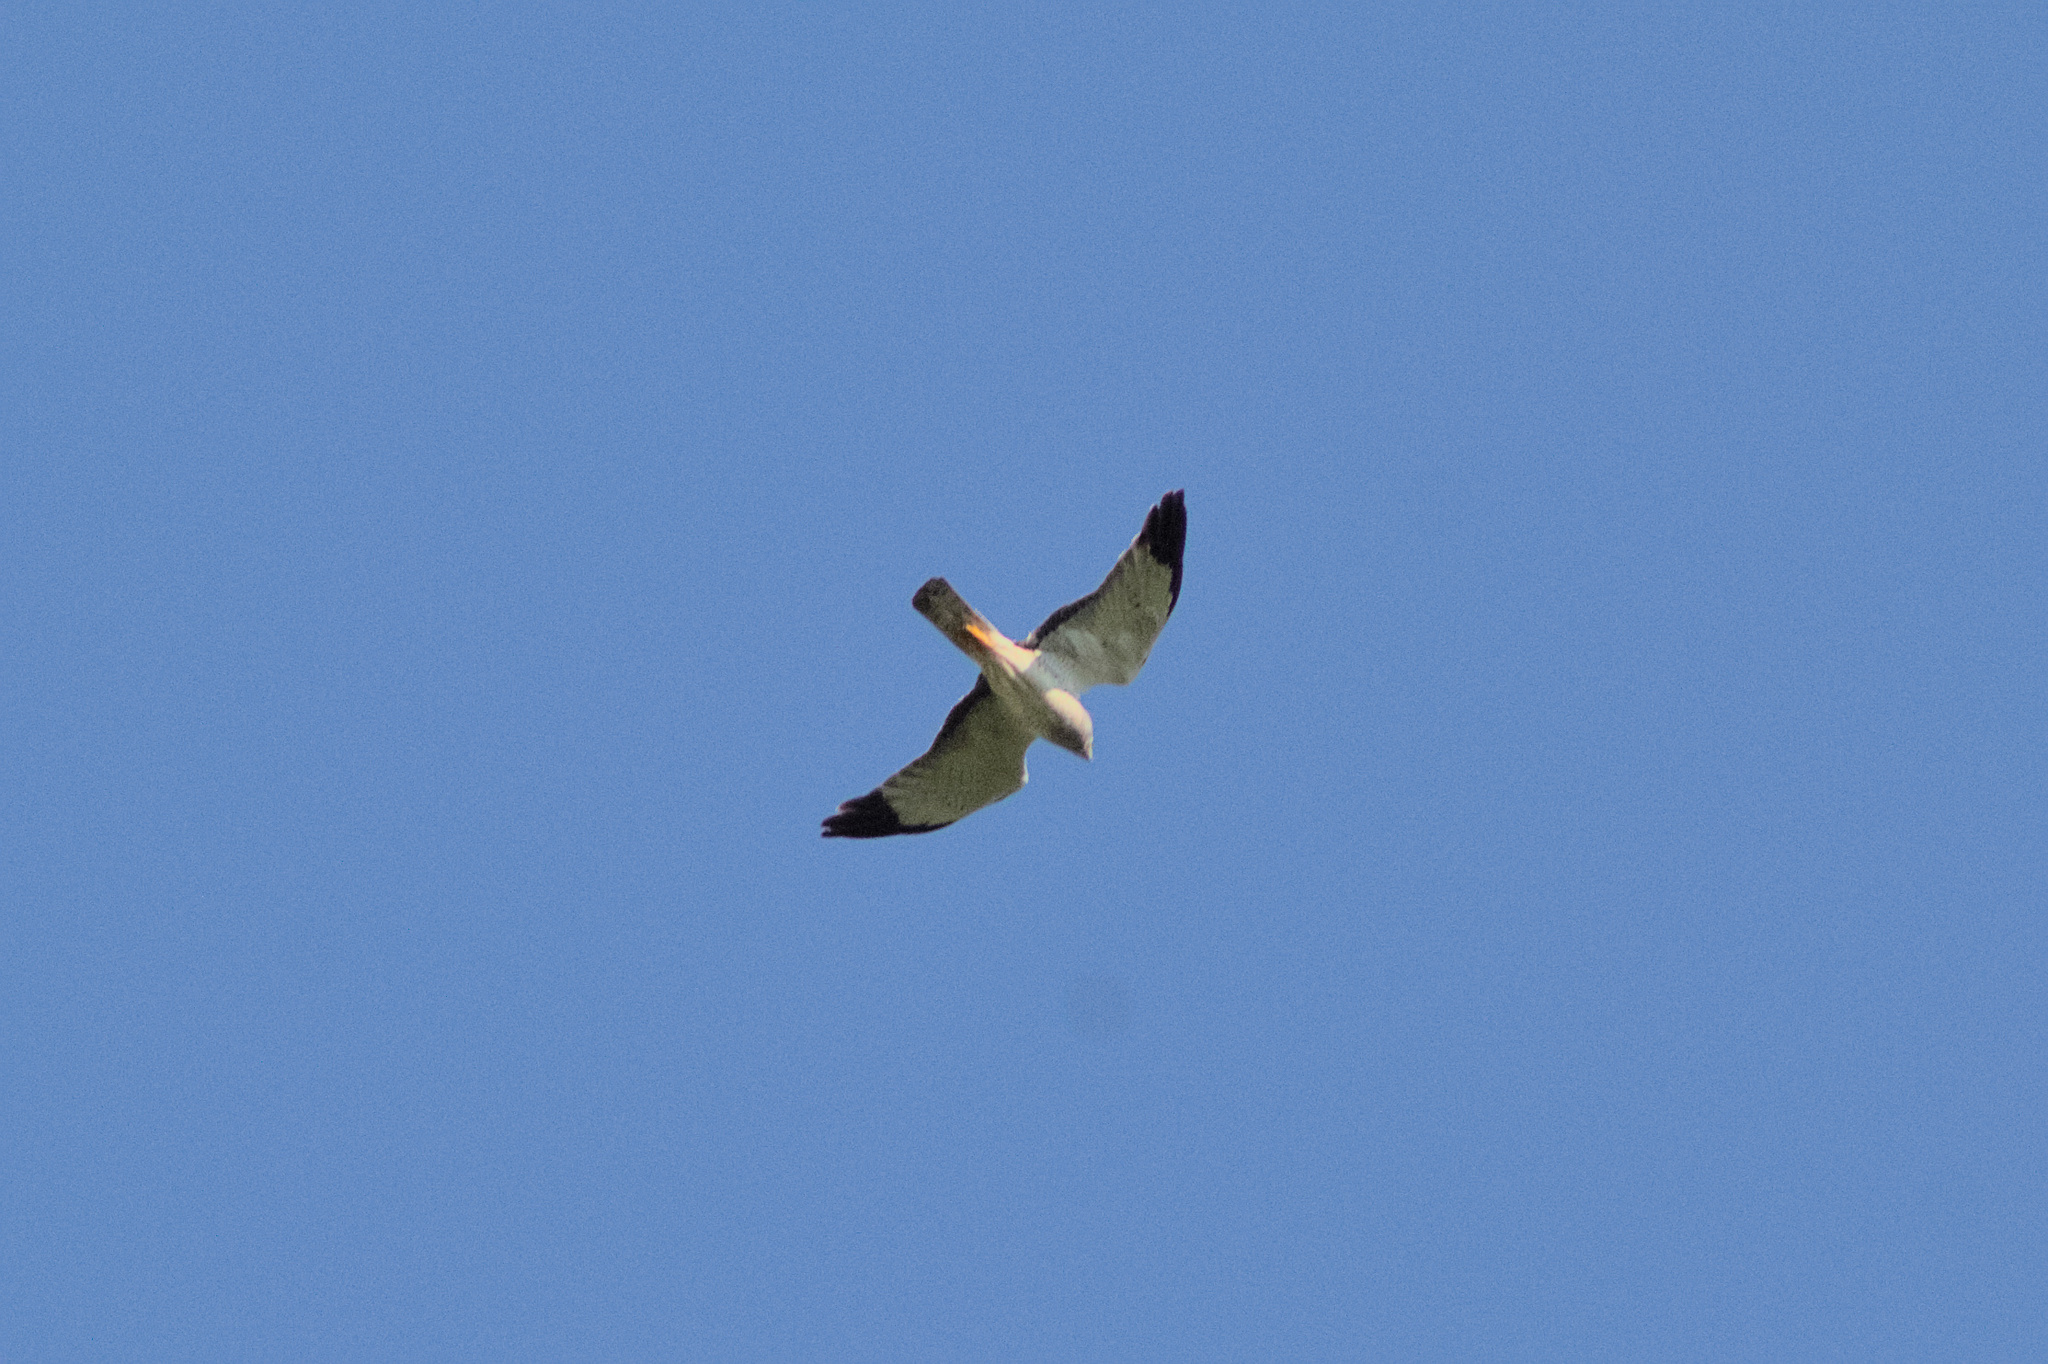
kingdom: Animalia
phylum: Chordata
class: Aves
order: Accipitriformes
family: Accipitridae
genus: Circus
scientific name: Circus cyaneus
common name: Hen harrier
